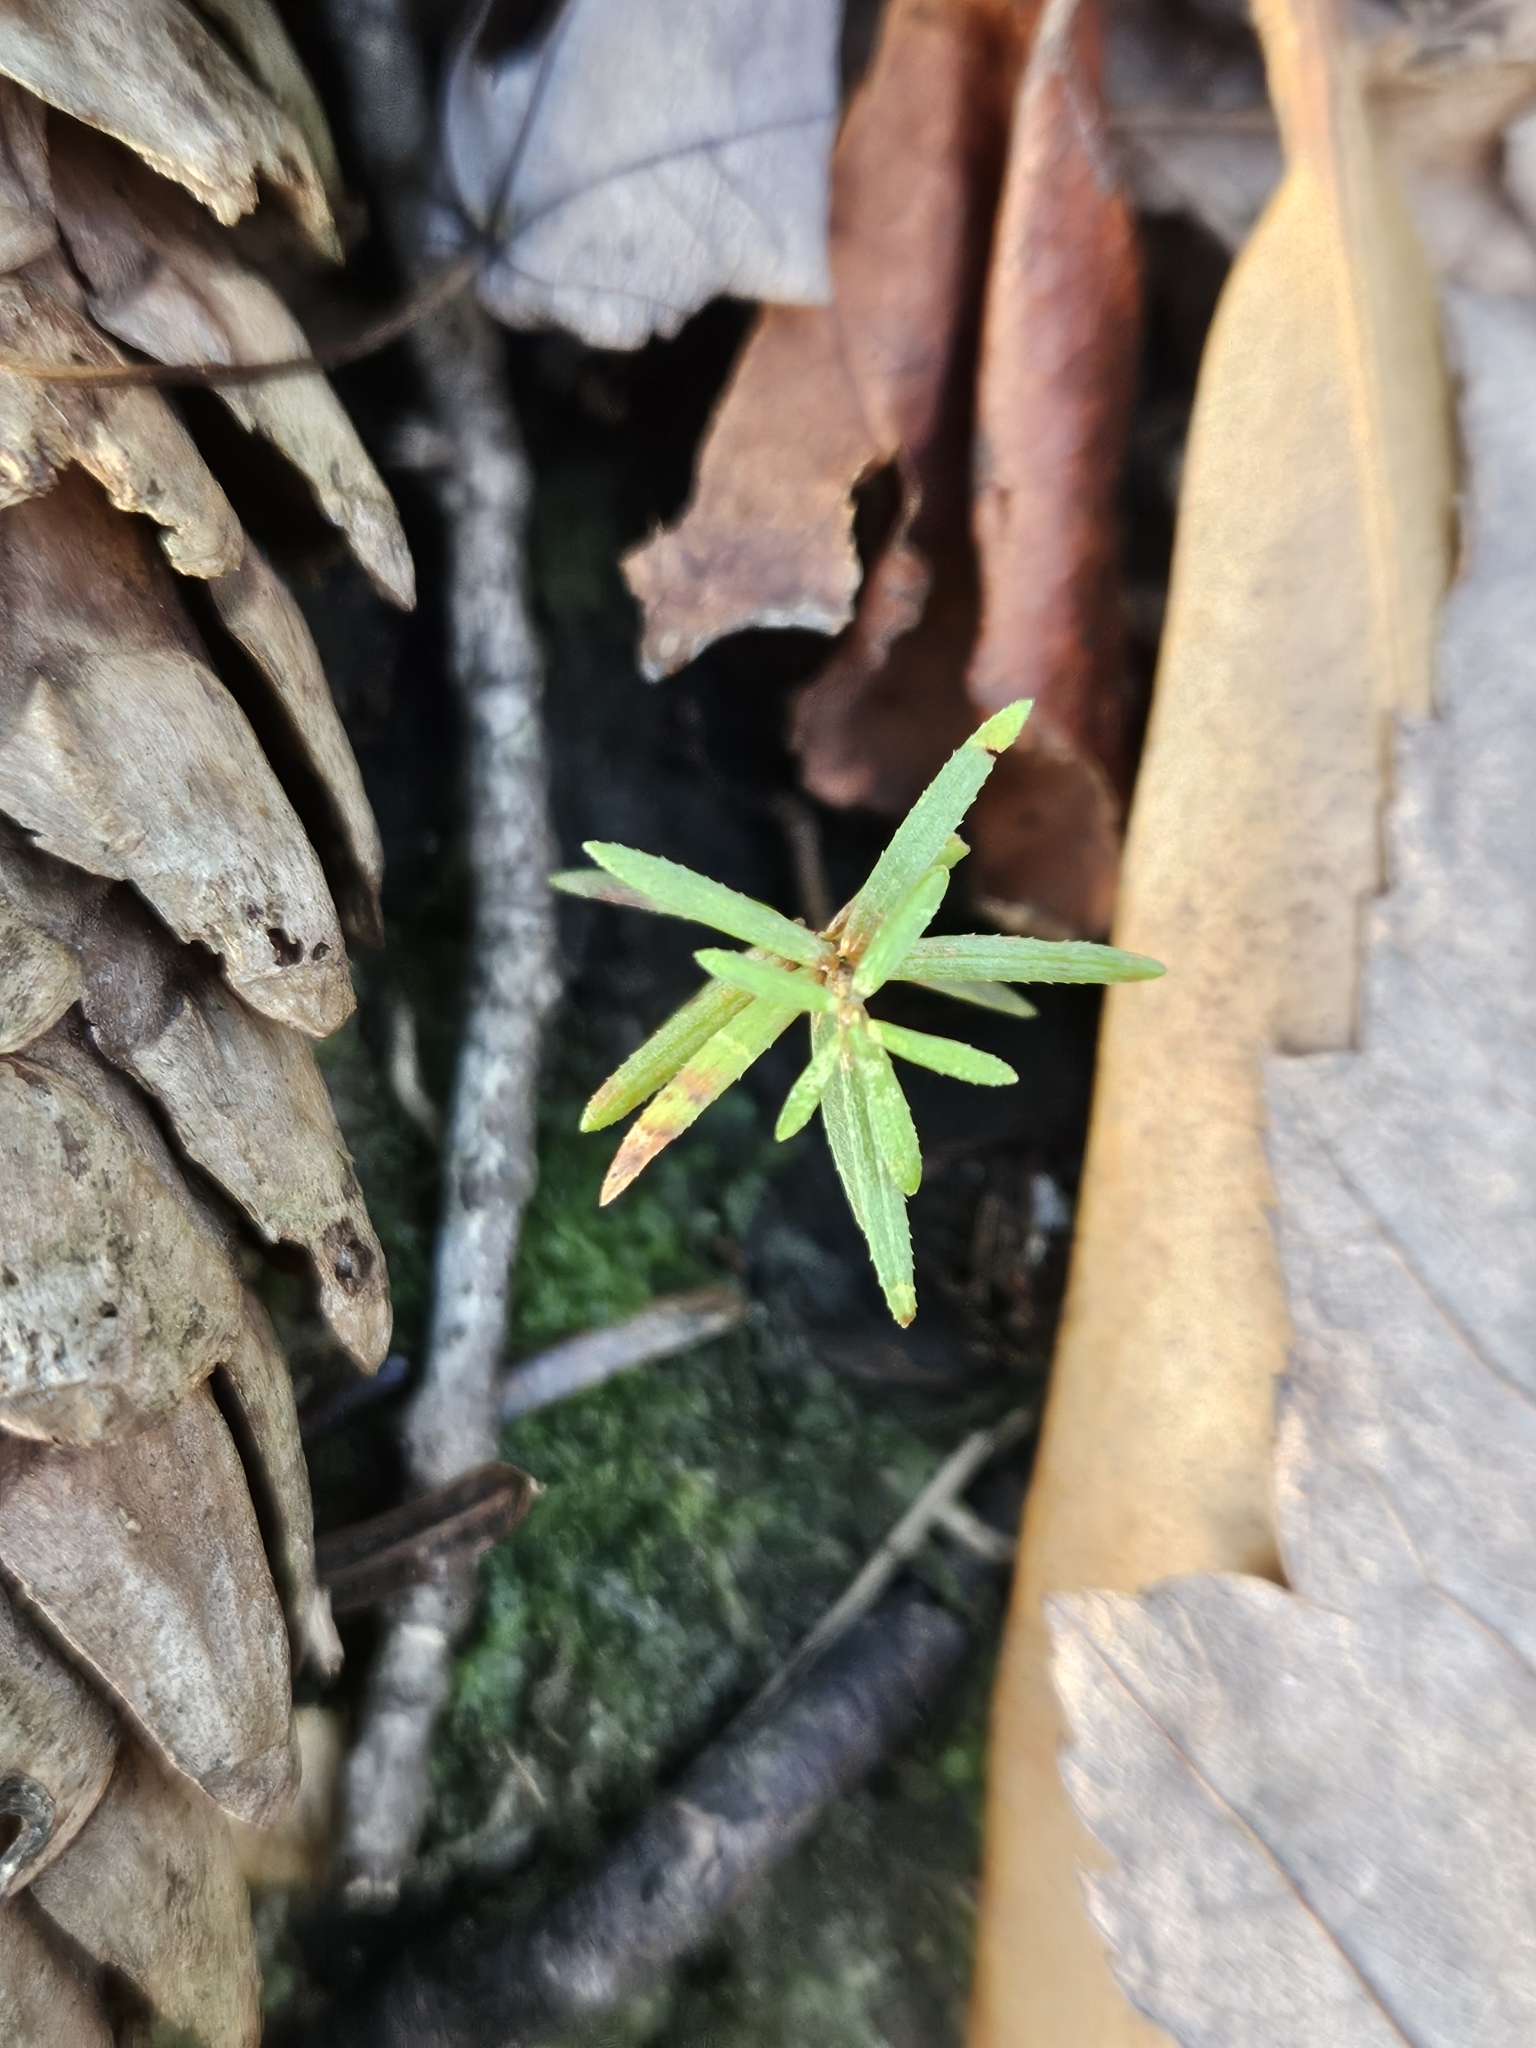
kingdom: Plantae
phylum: Tracheophyta
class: Pinopsida
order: Pinales
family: Pinaceae
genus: Tsuga
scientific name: Tsuga canadensis
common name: Eastern hemlock
